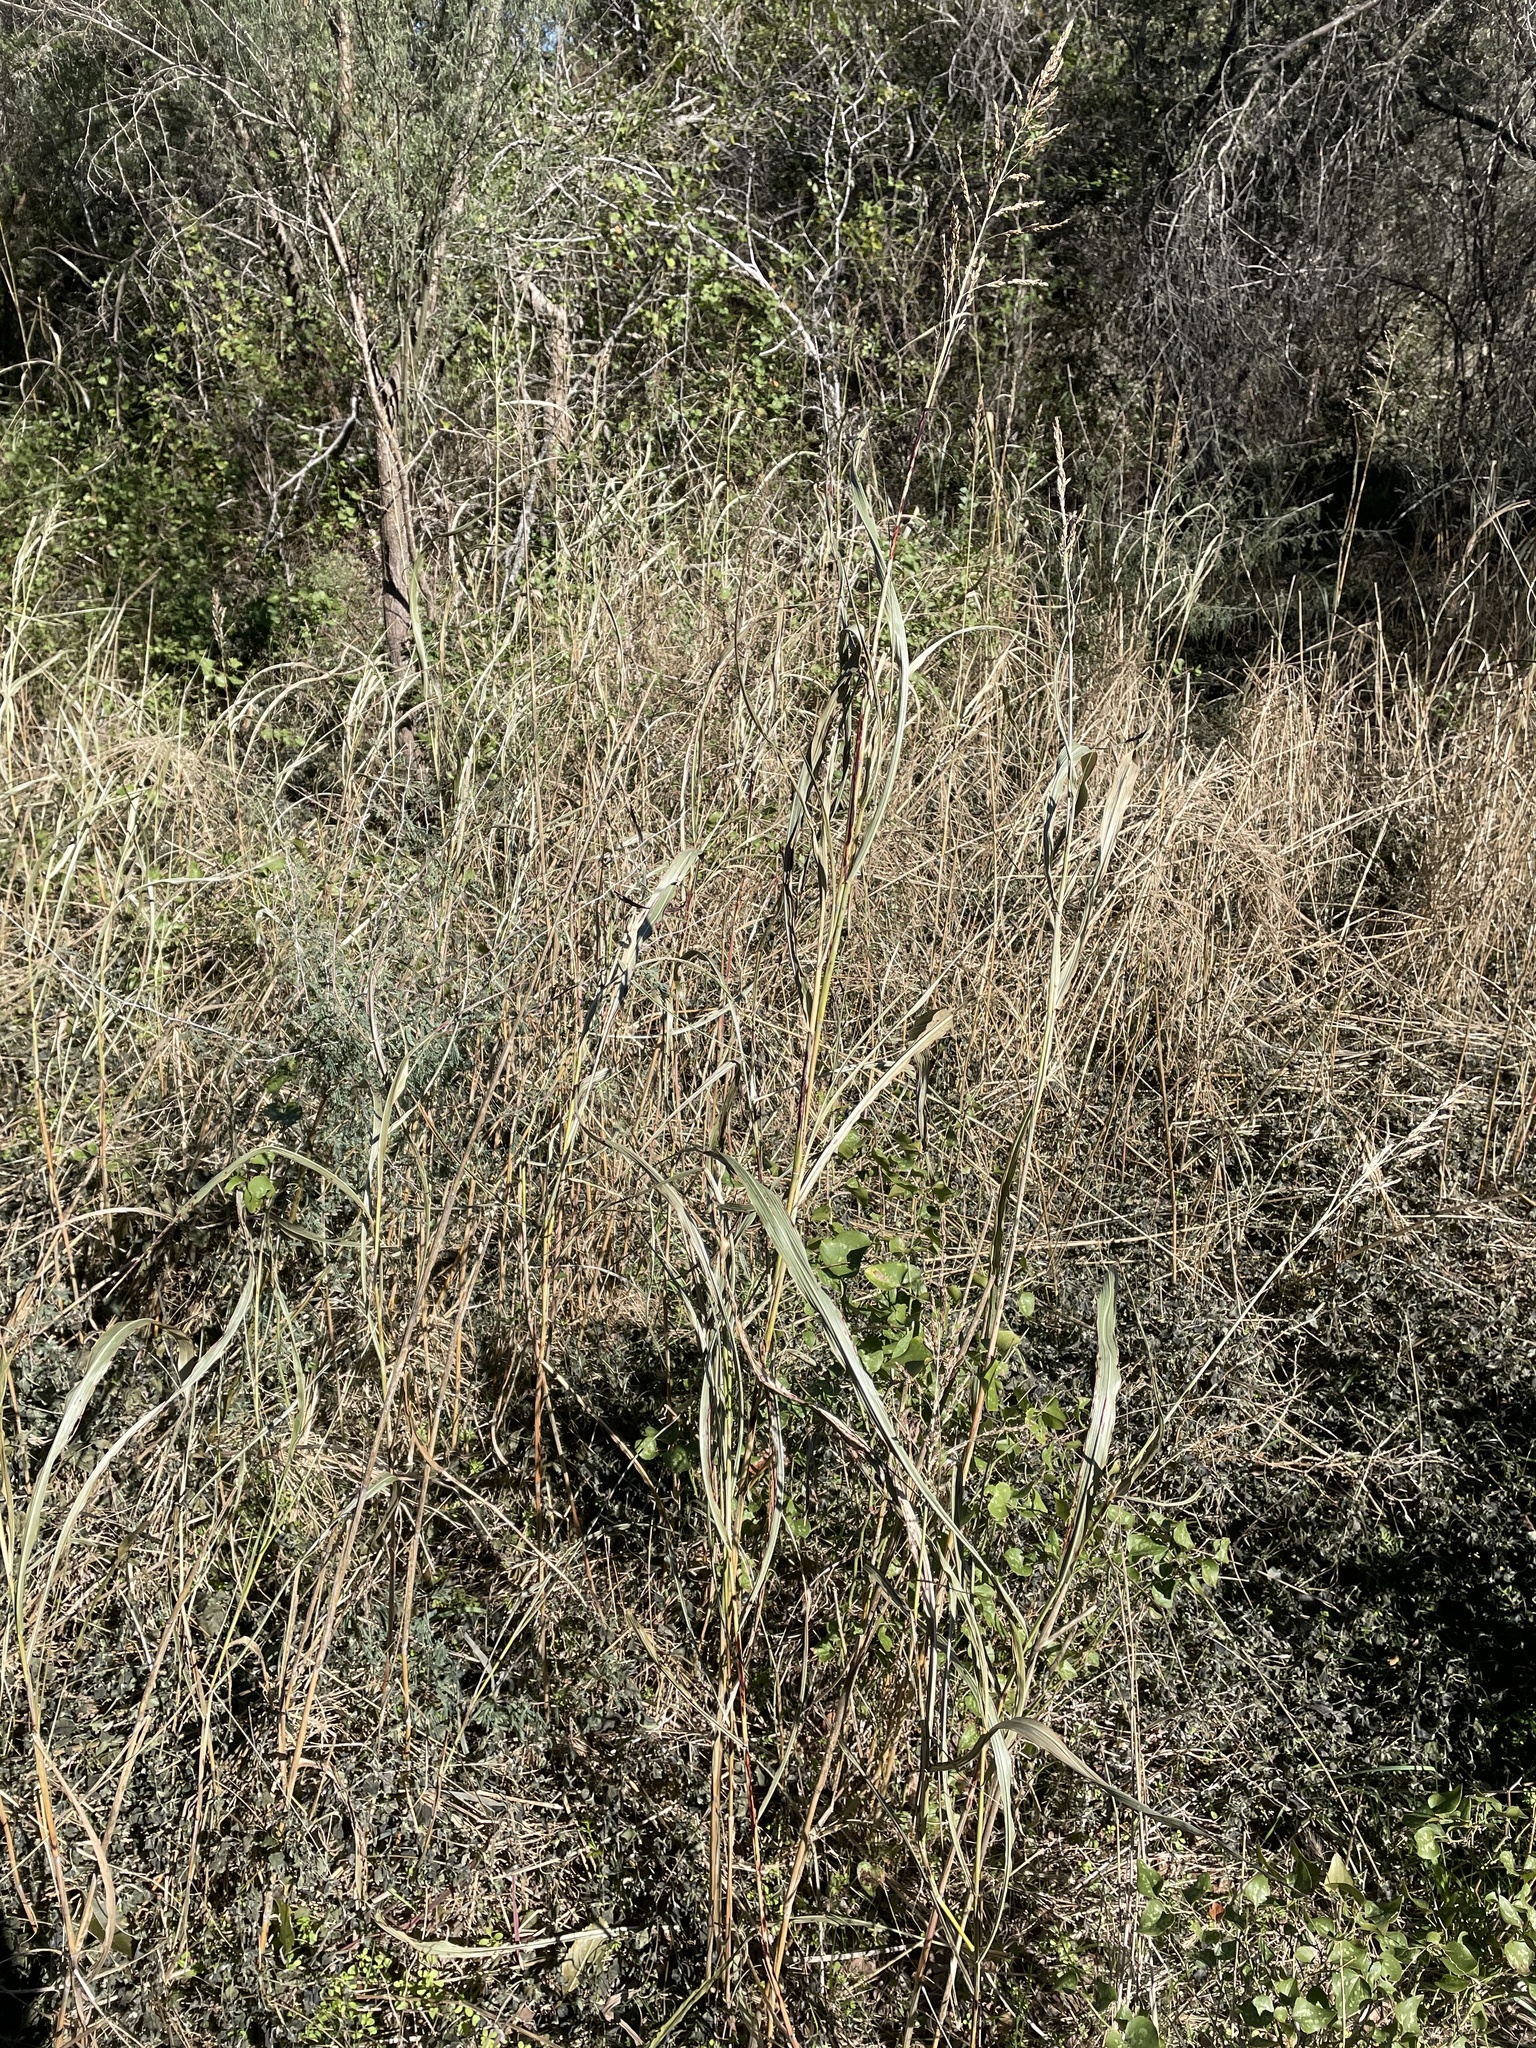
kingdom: Plantae
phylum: Tracheophyta
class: Liliopsida
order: Poales
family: Poaceae
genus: Sorghum
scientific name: Sorghum halepense
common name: Johnson-grass
